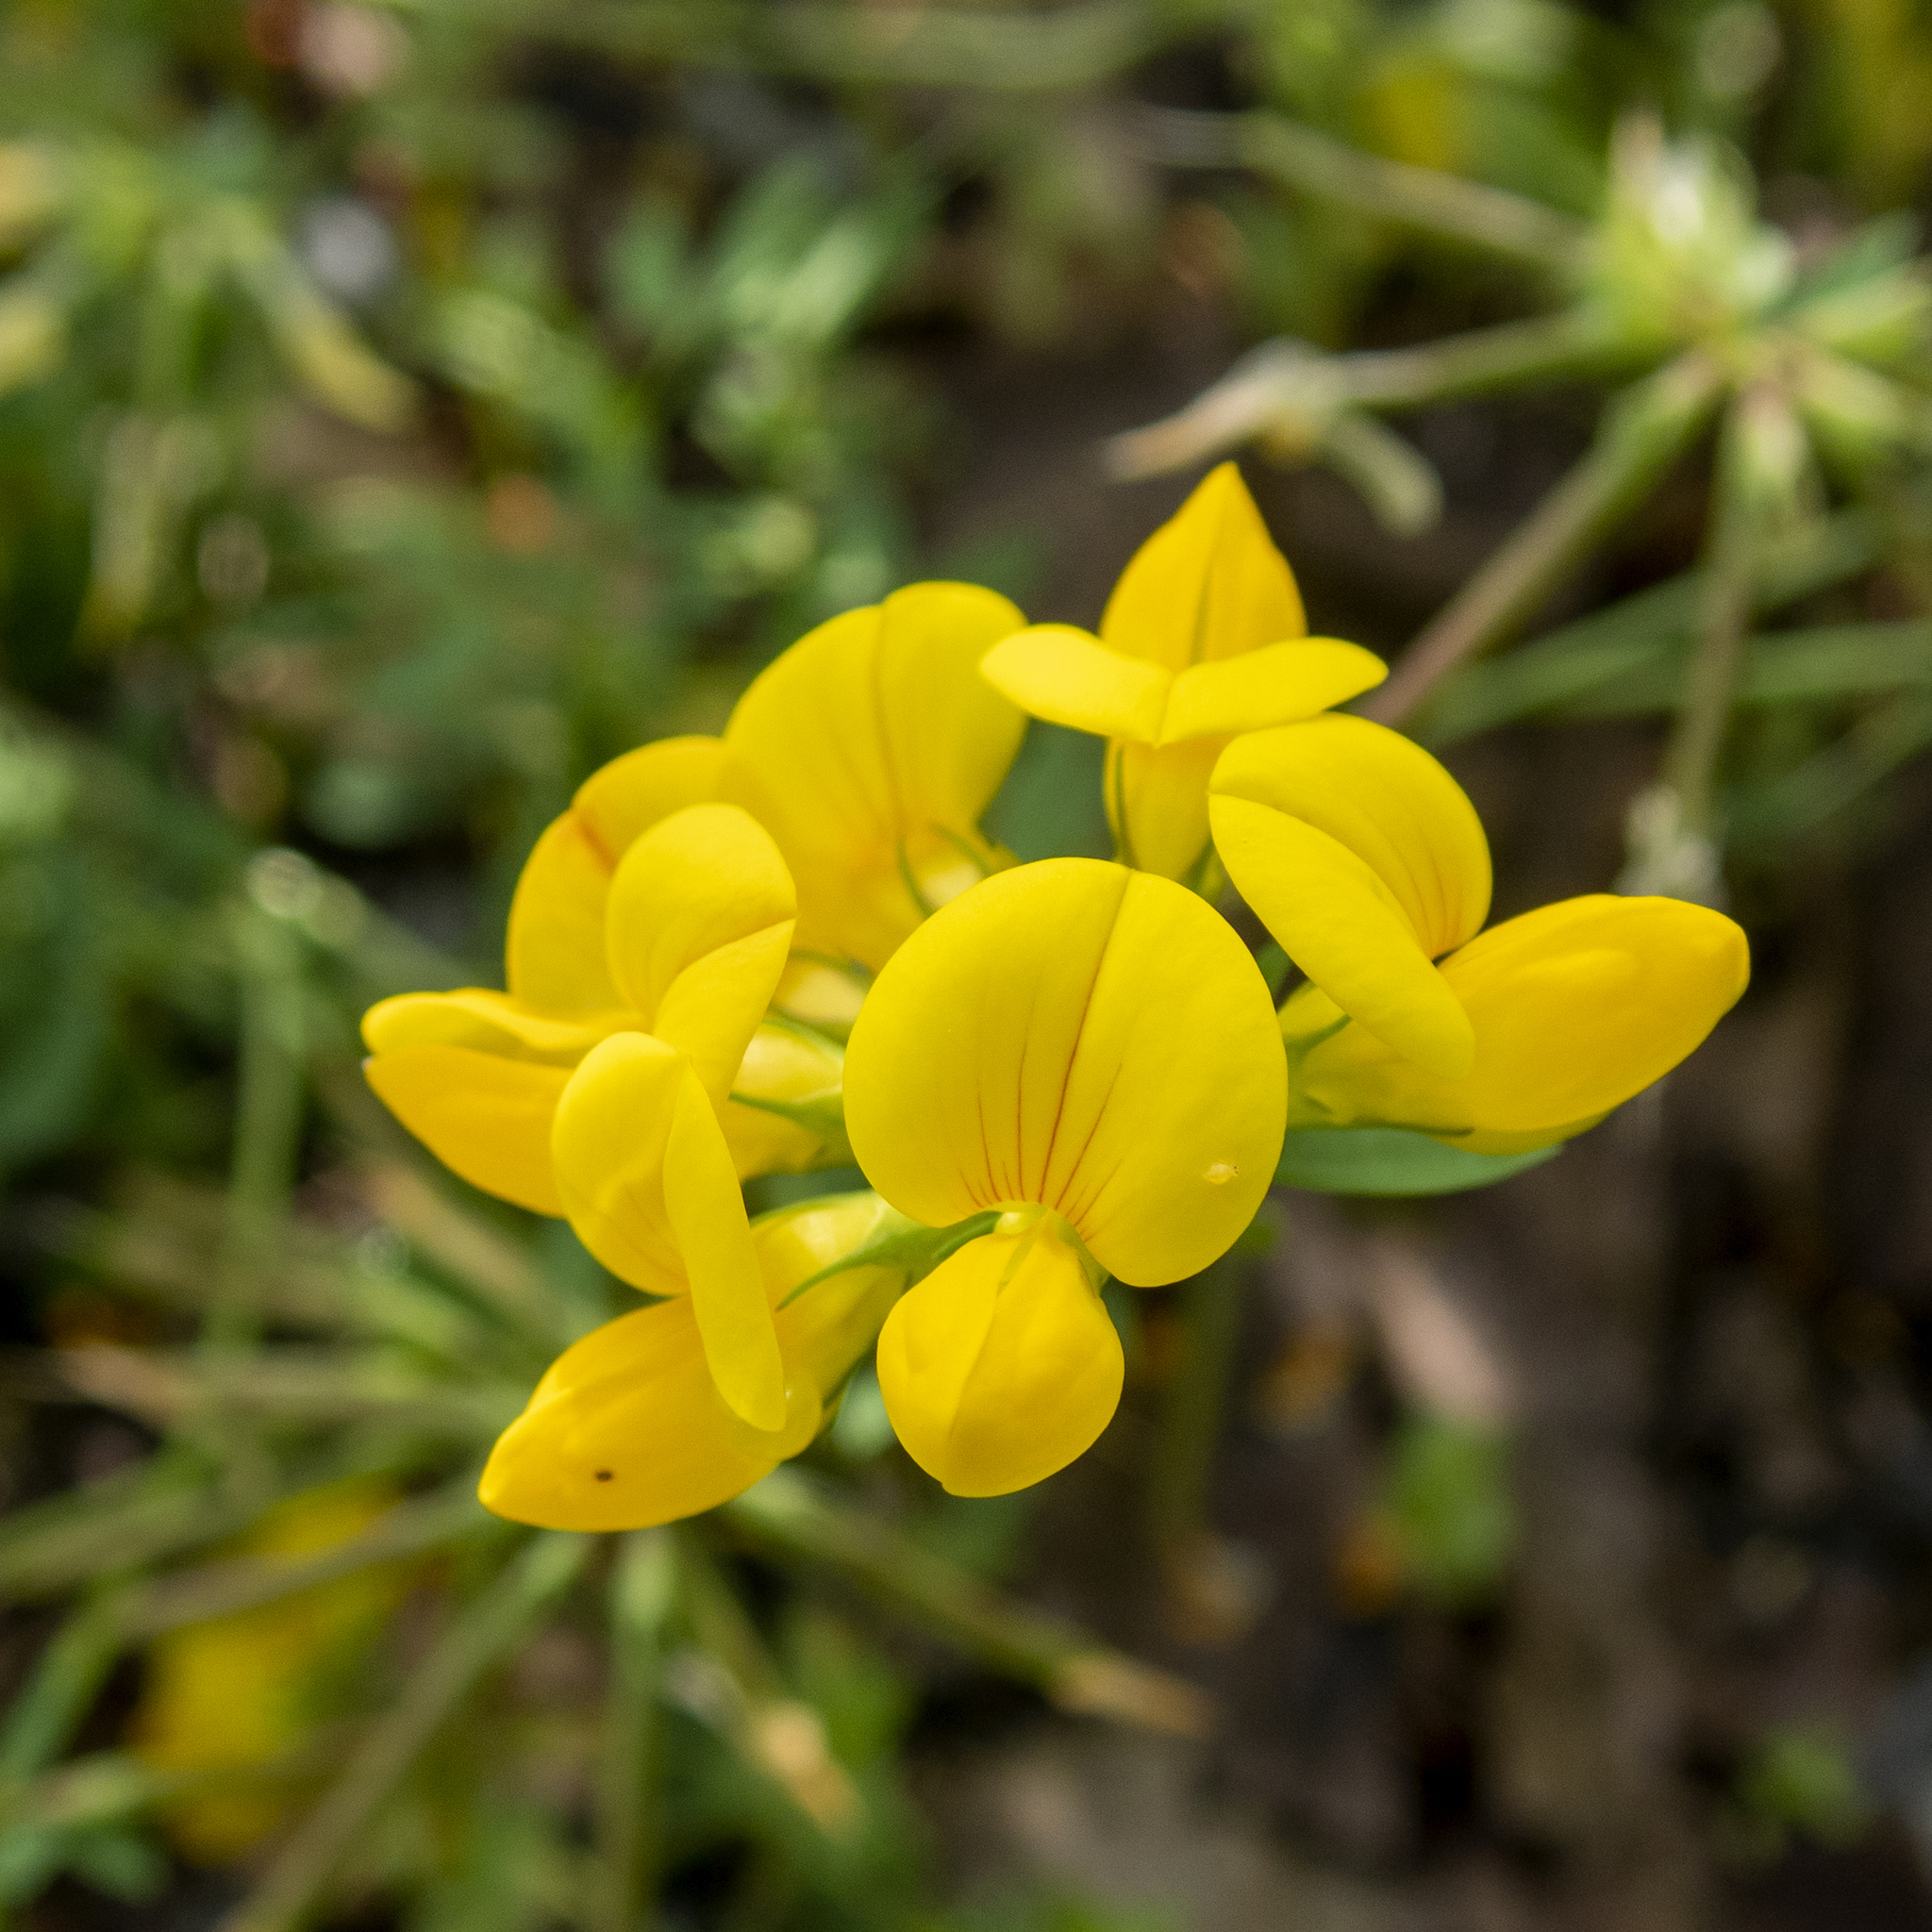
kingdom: Plantae
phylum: Tracheophyta
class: Magnoliopsida
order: Fabales
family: Fabaceae
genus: Lotus
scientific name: Lotus corniculatus
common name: Common bird's-foot-trefoil
